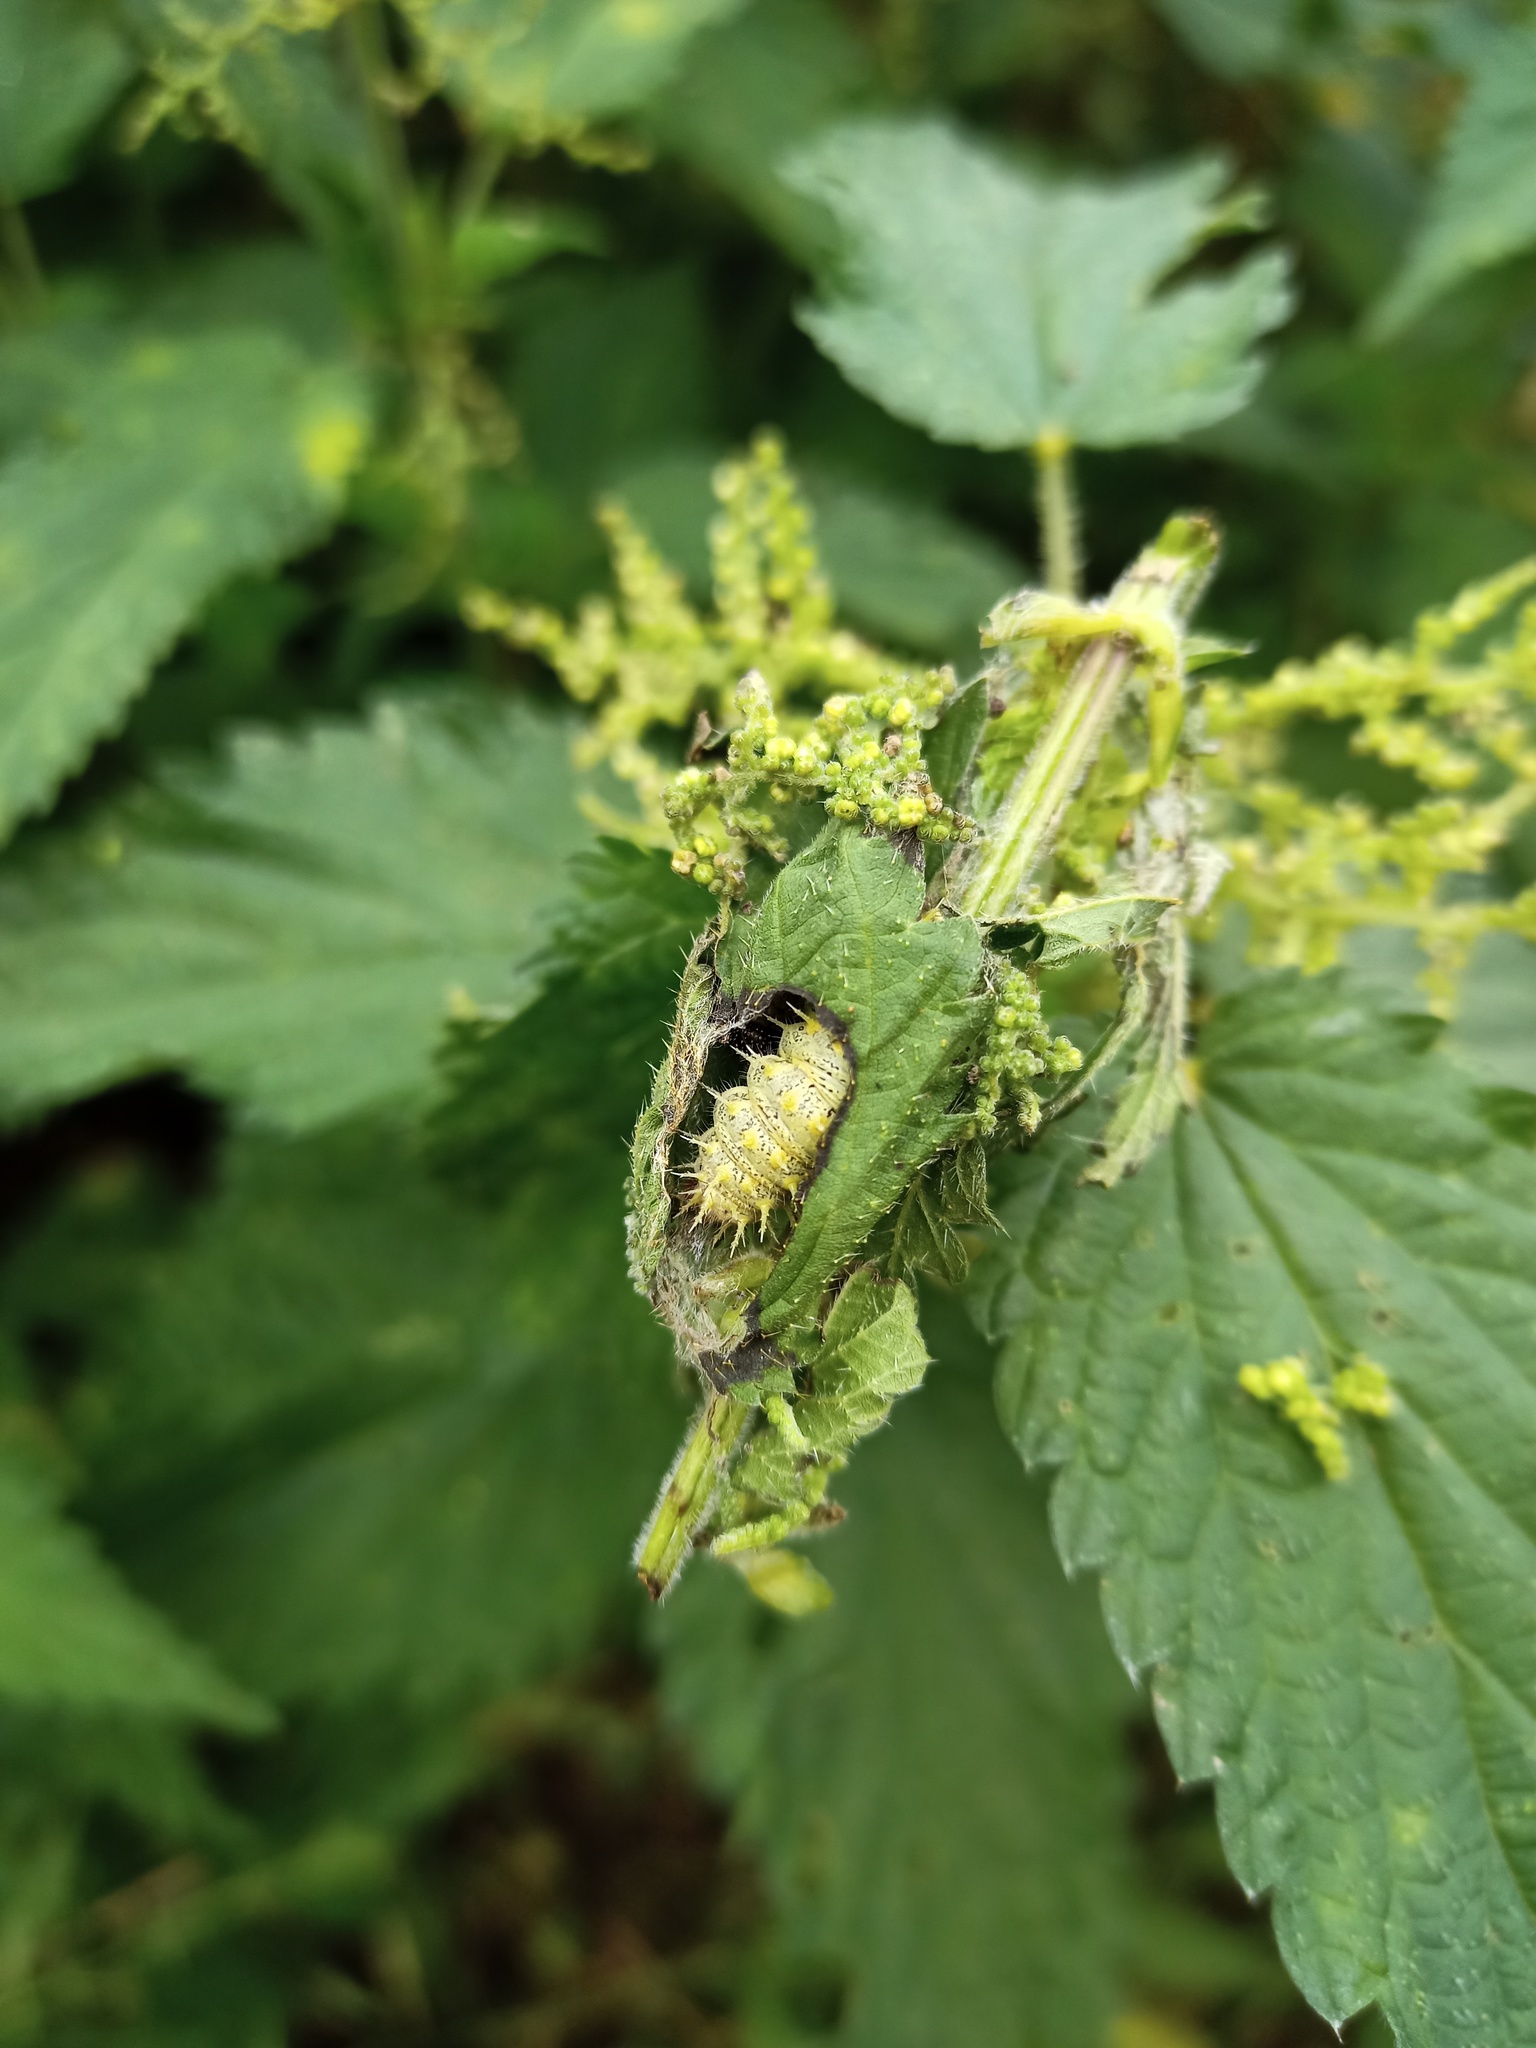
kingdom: Animalia
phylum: Arthropoda
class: Insecta
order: Lepidoptera
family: Nymphalidae
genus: Vanessa
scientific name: Vanessa atalanta
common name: Red admiral
